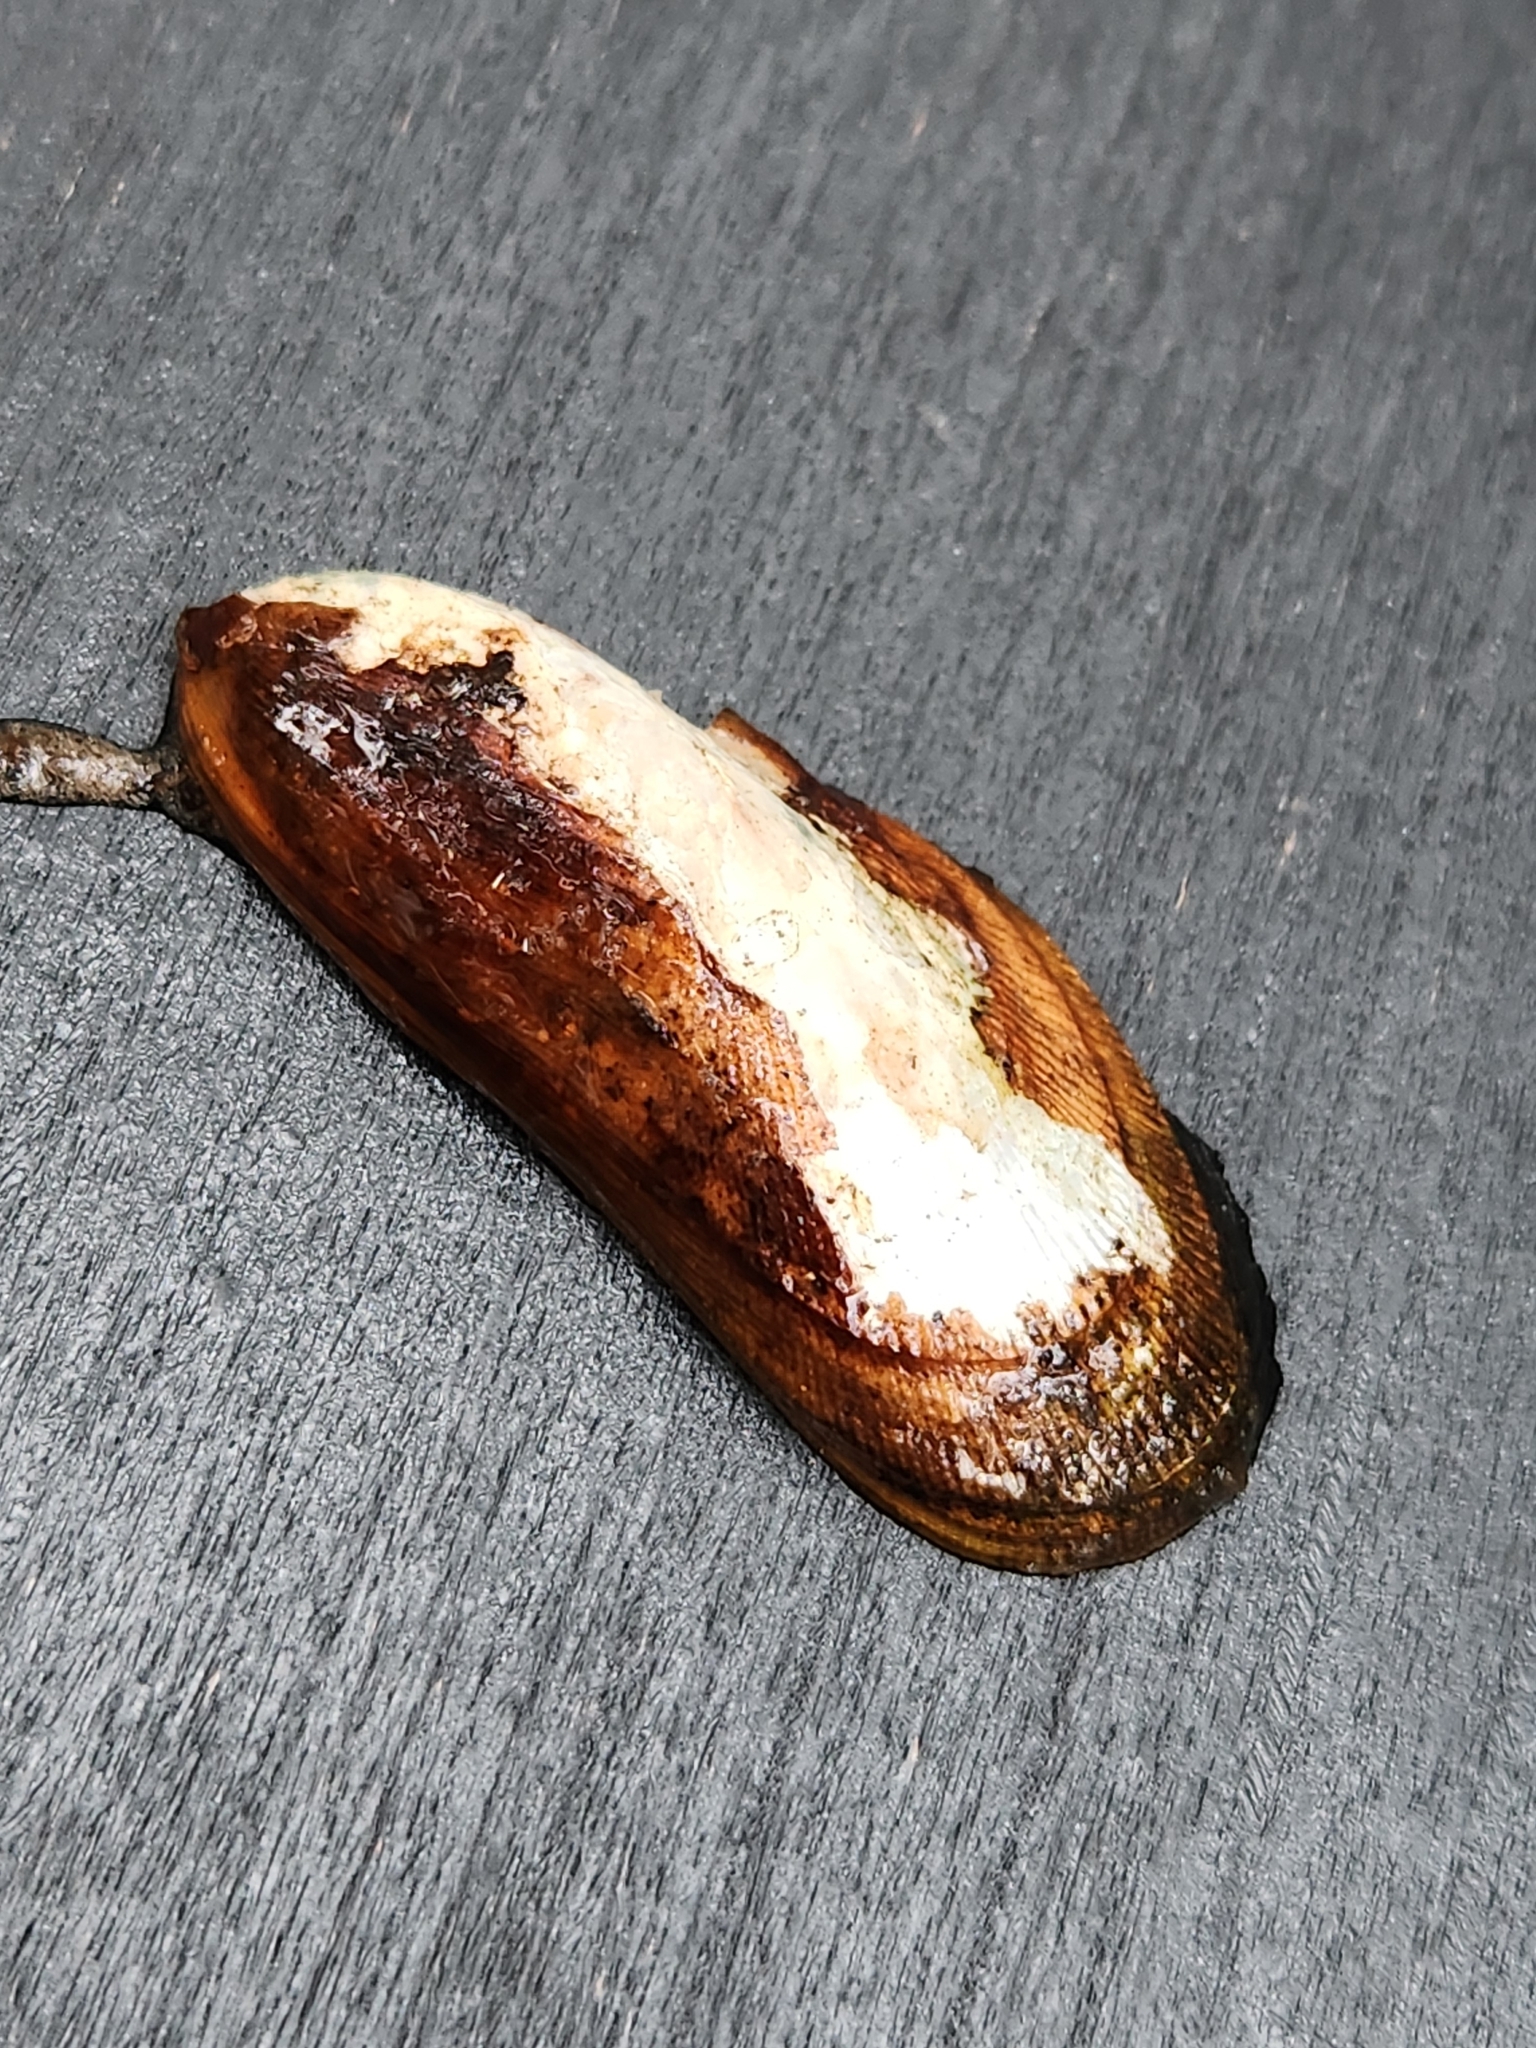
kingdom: Animalia
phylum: Mollusca
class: Bivalvia
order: Mytilida
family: Mytilidae
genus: Geukensia
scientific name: Geukensia granosissima
